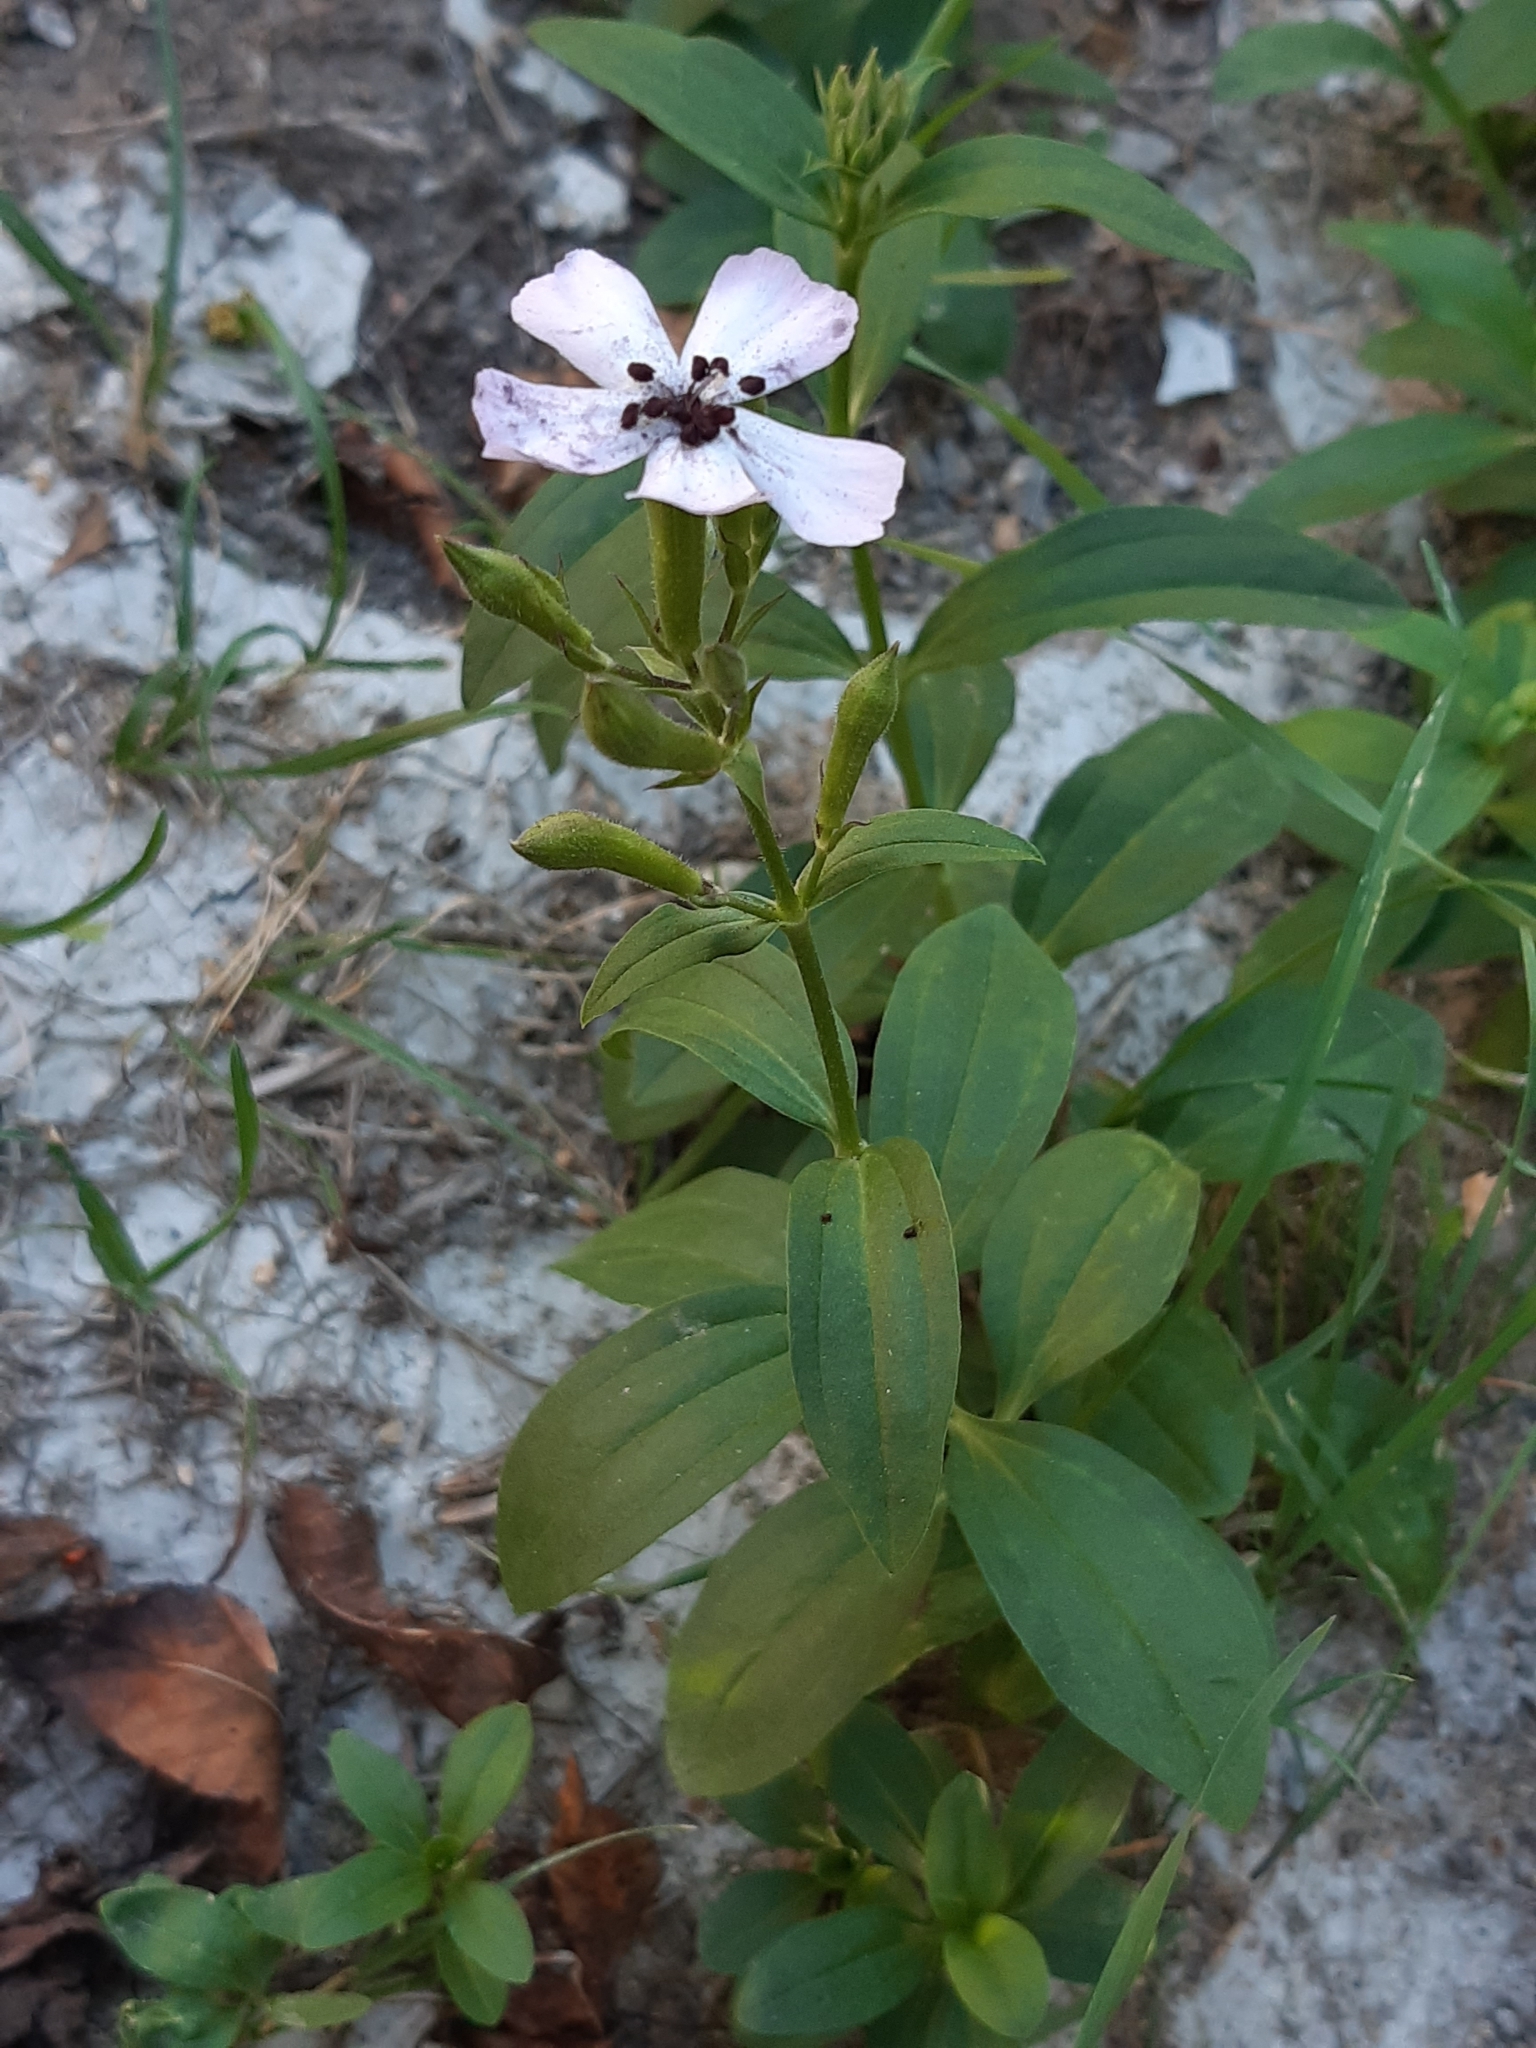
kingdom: Plantae
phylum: Tracheophyta
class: Magnoliopsida
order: Caryophyllales
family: Caryophyllaceae
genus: Saponaria
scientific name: Saponaria officinalis
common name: Soapwort
